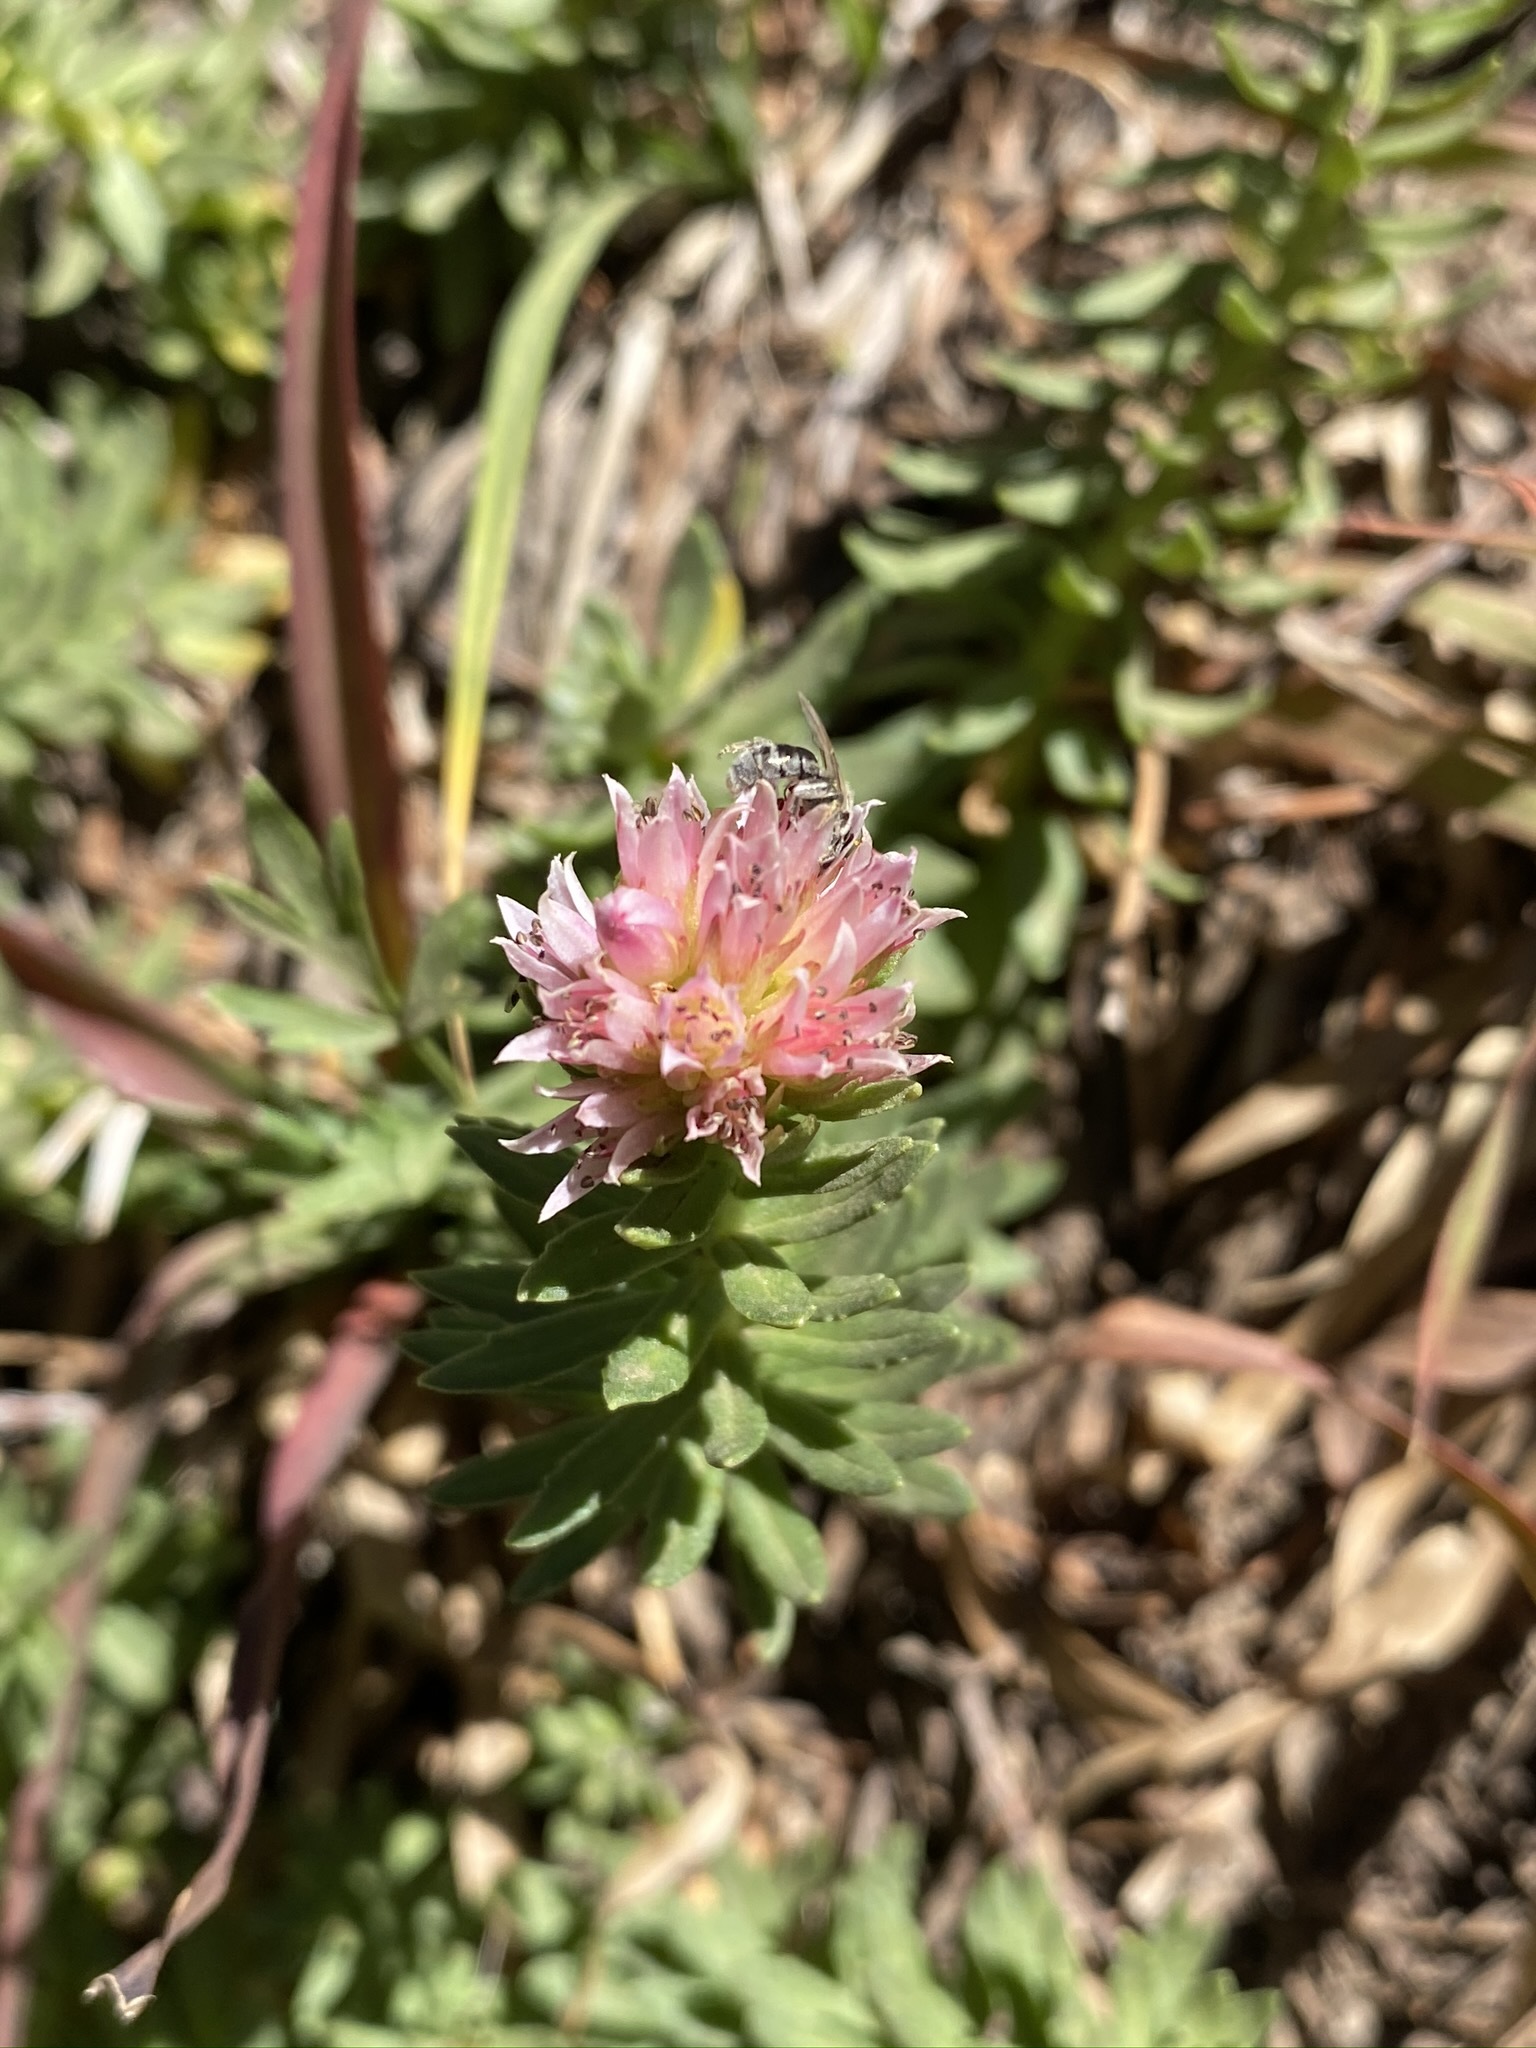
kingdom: Plantae
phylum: Tracheophyta
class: Magnoliopsida
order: Saxifragales
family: Crassulaceae
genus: Rhodiola
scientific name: Rhodiola rhodantha
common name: Red orpine
